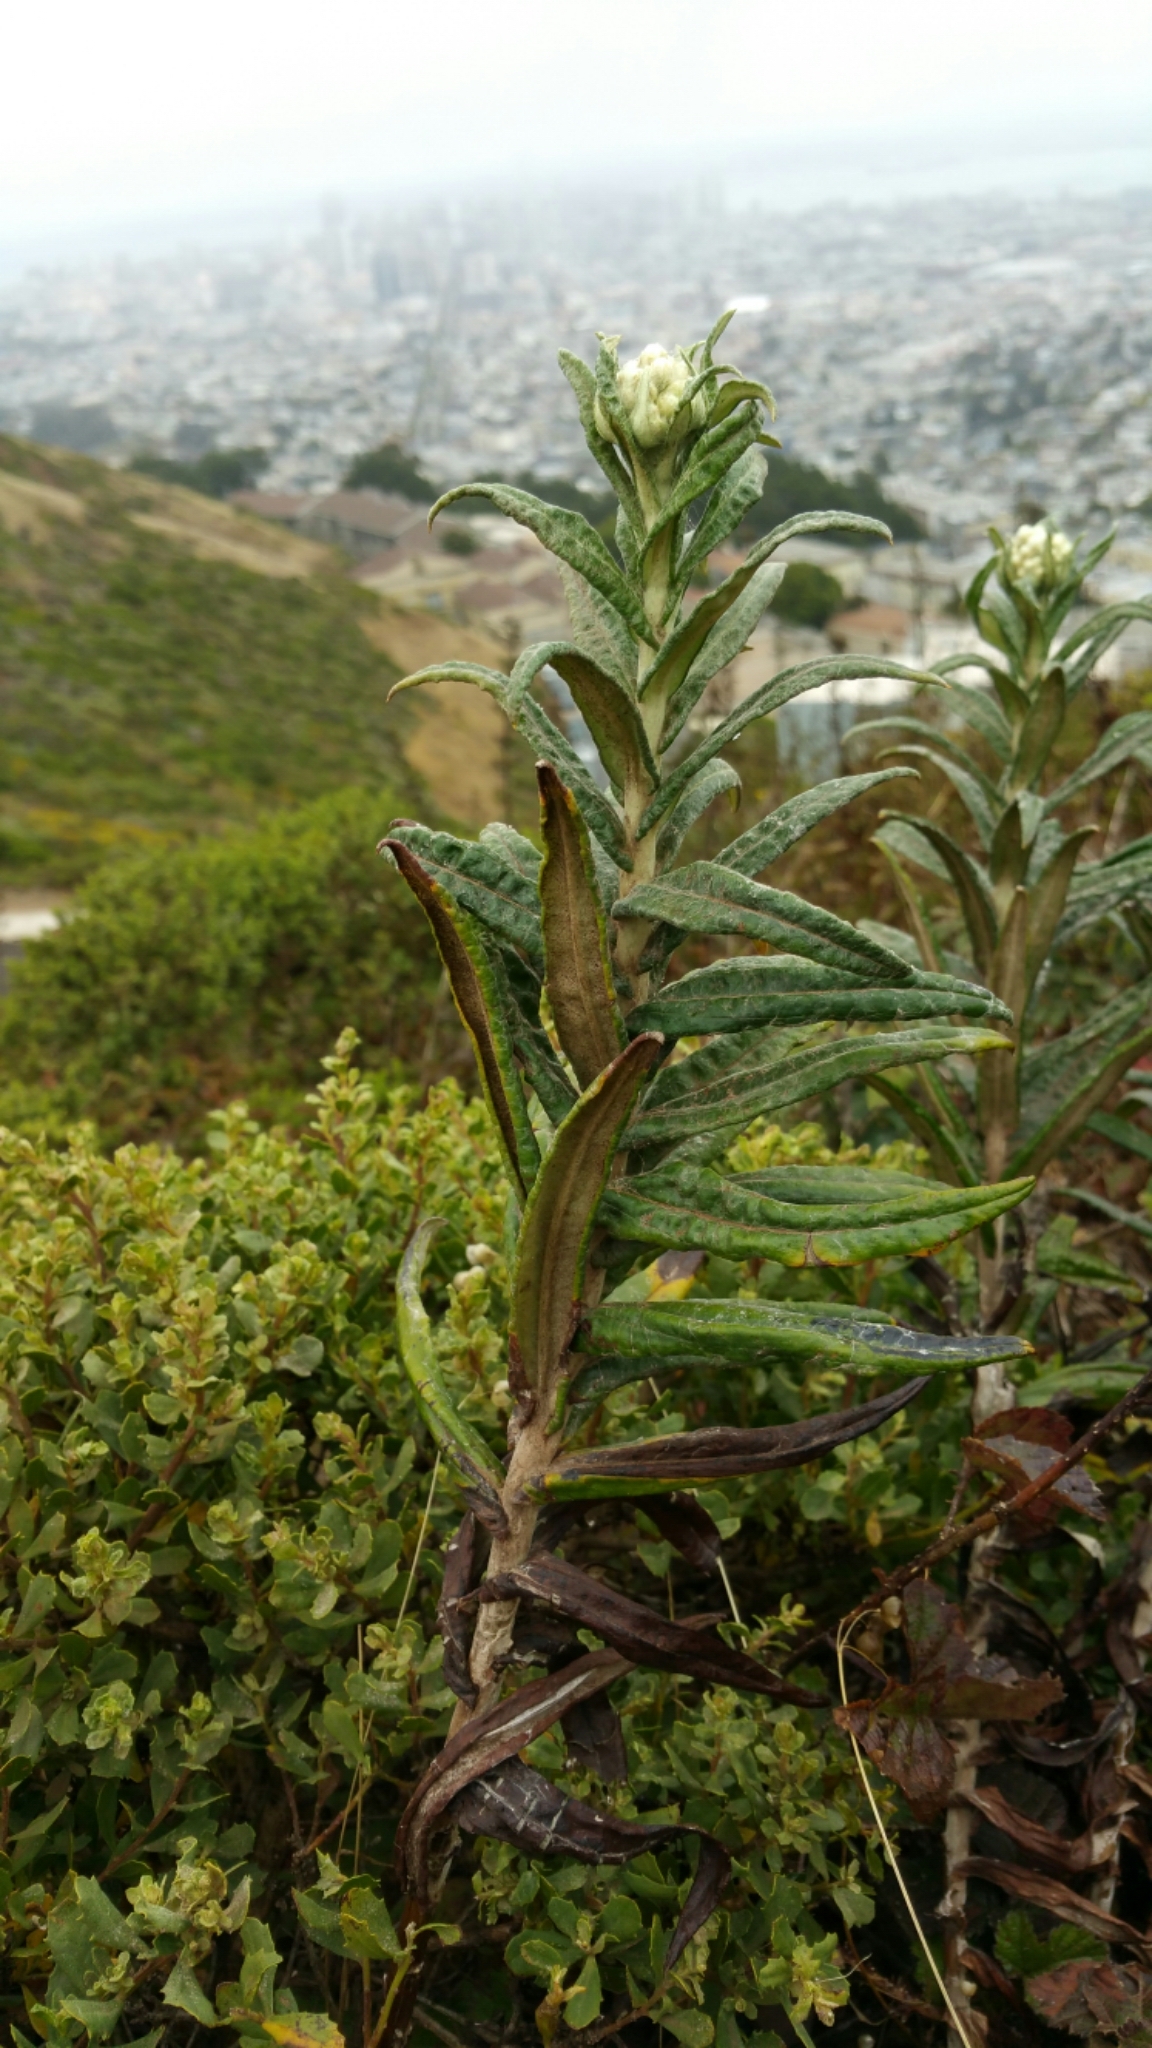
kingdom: Plantae
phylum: Tracheophyta
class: Magnoliopsida
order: Asterales
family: Asteraceae
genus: Anaphalis
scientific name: Anaphalis margaritacea
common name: Pearly everlasting
